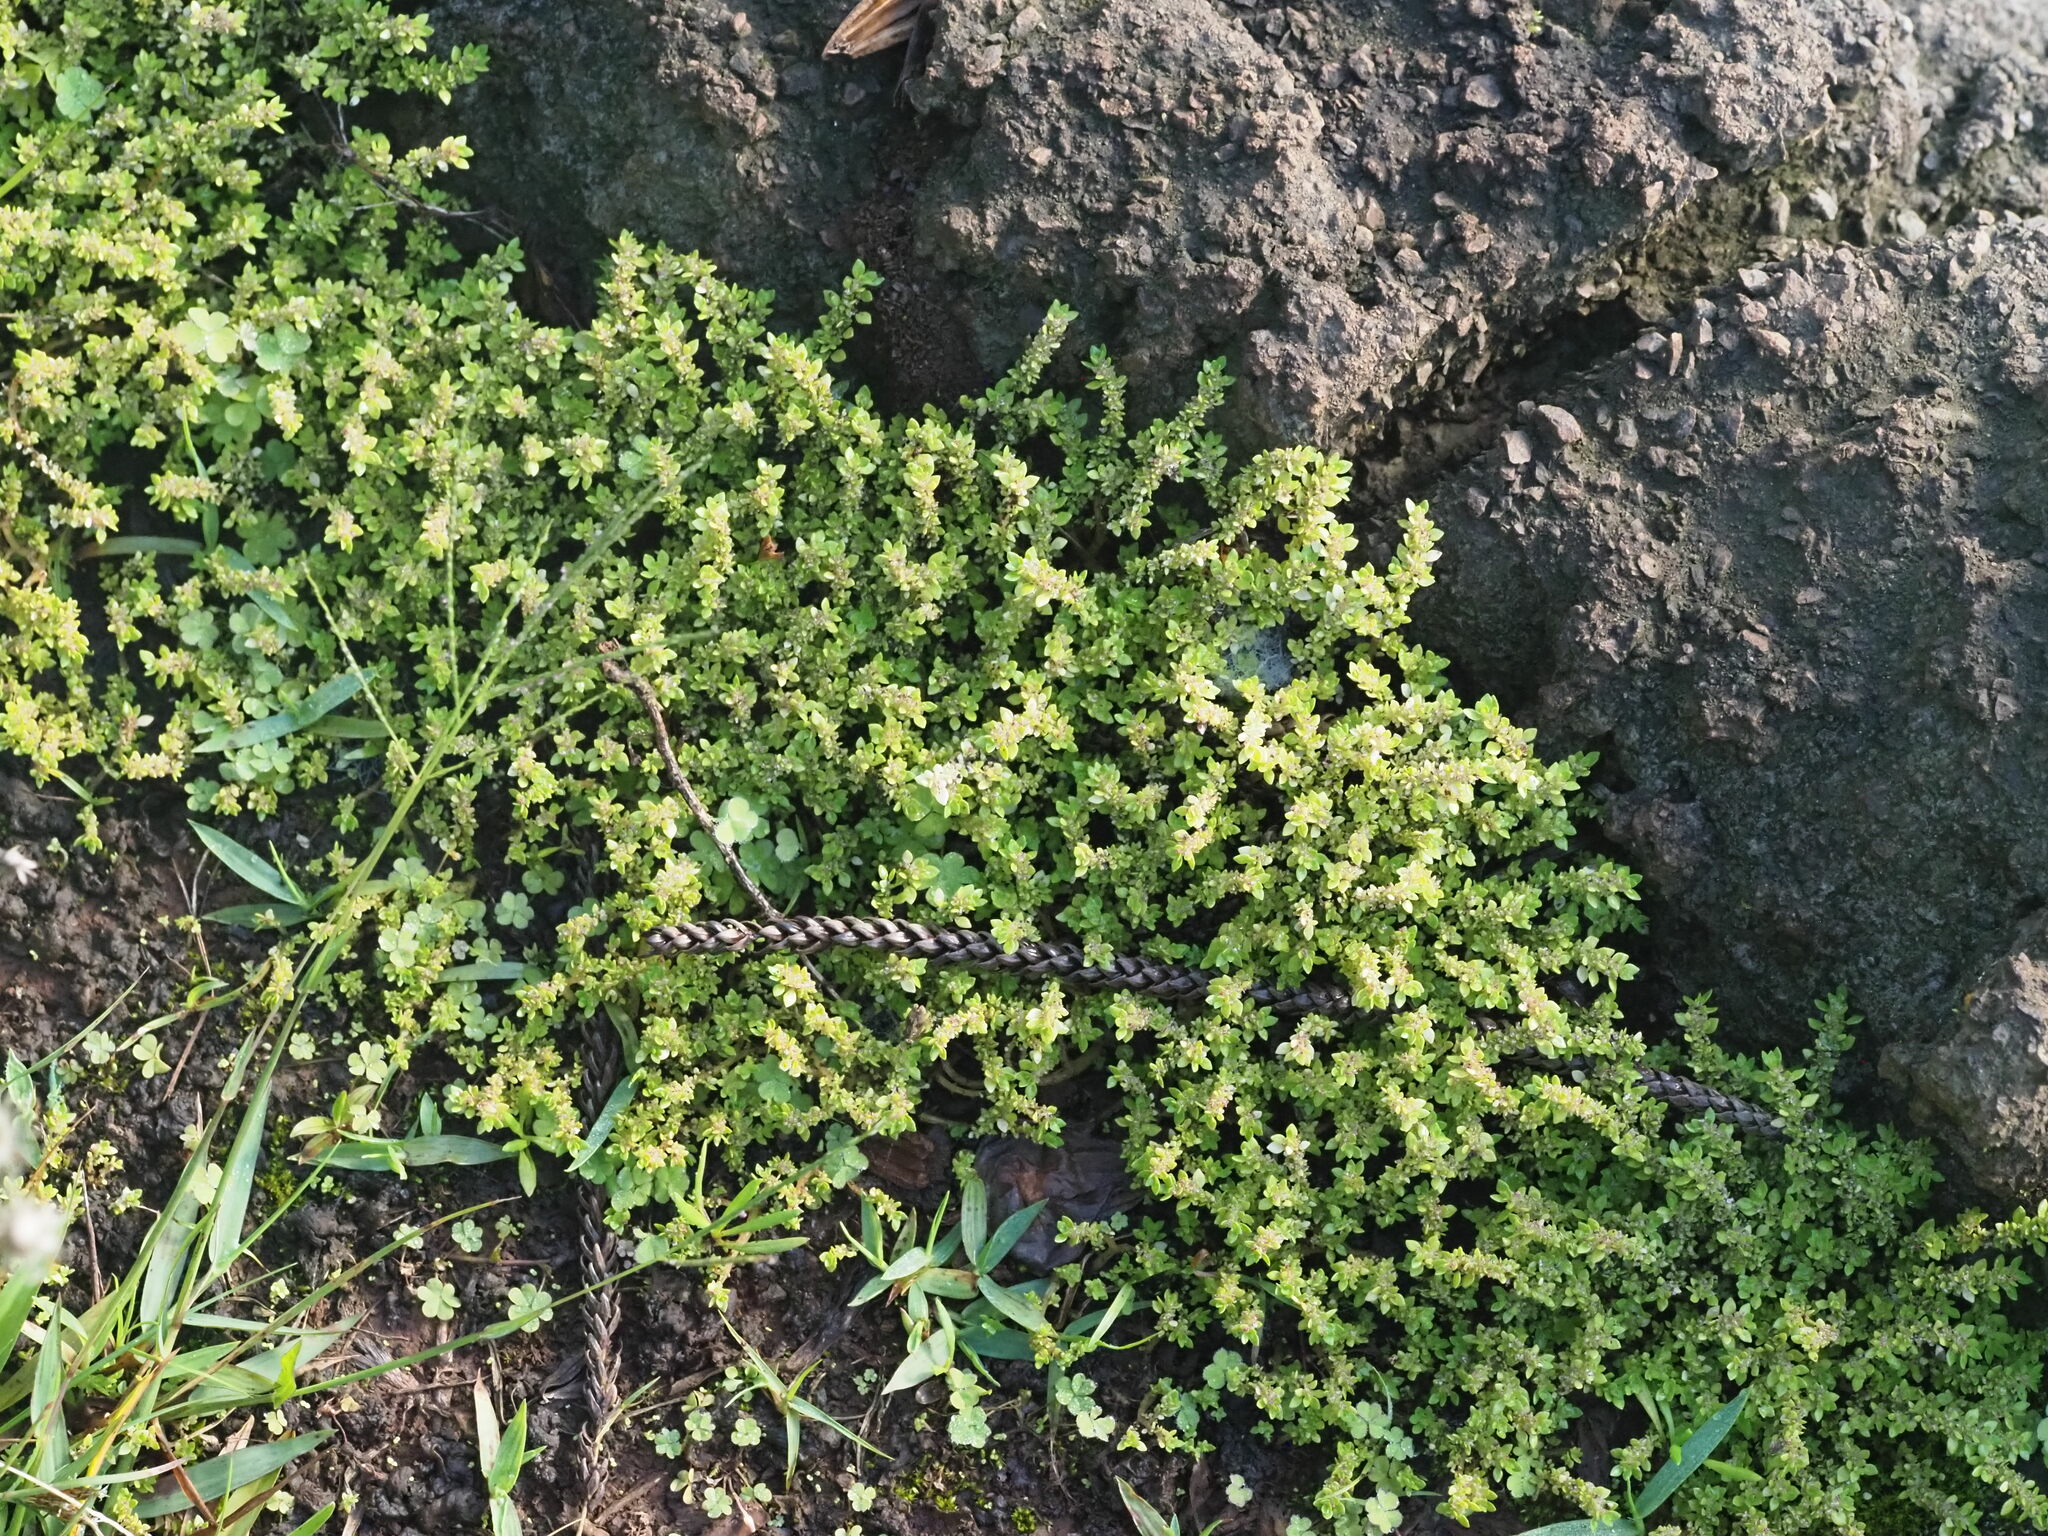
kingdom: Plantae
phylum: Tracheophyta
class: Magnoliopsida
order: Rosales
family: Urticaceae
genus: Pilea
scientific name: Pilea microphylla
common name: Artillery-plant
